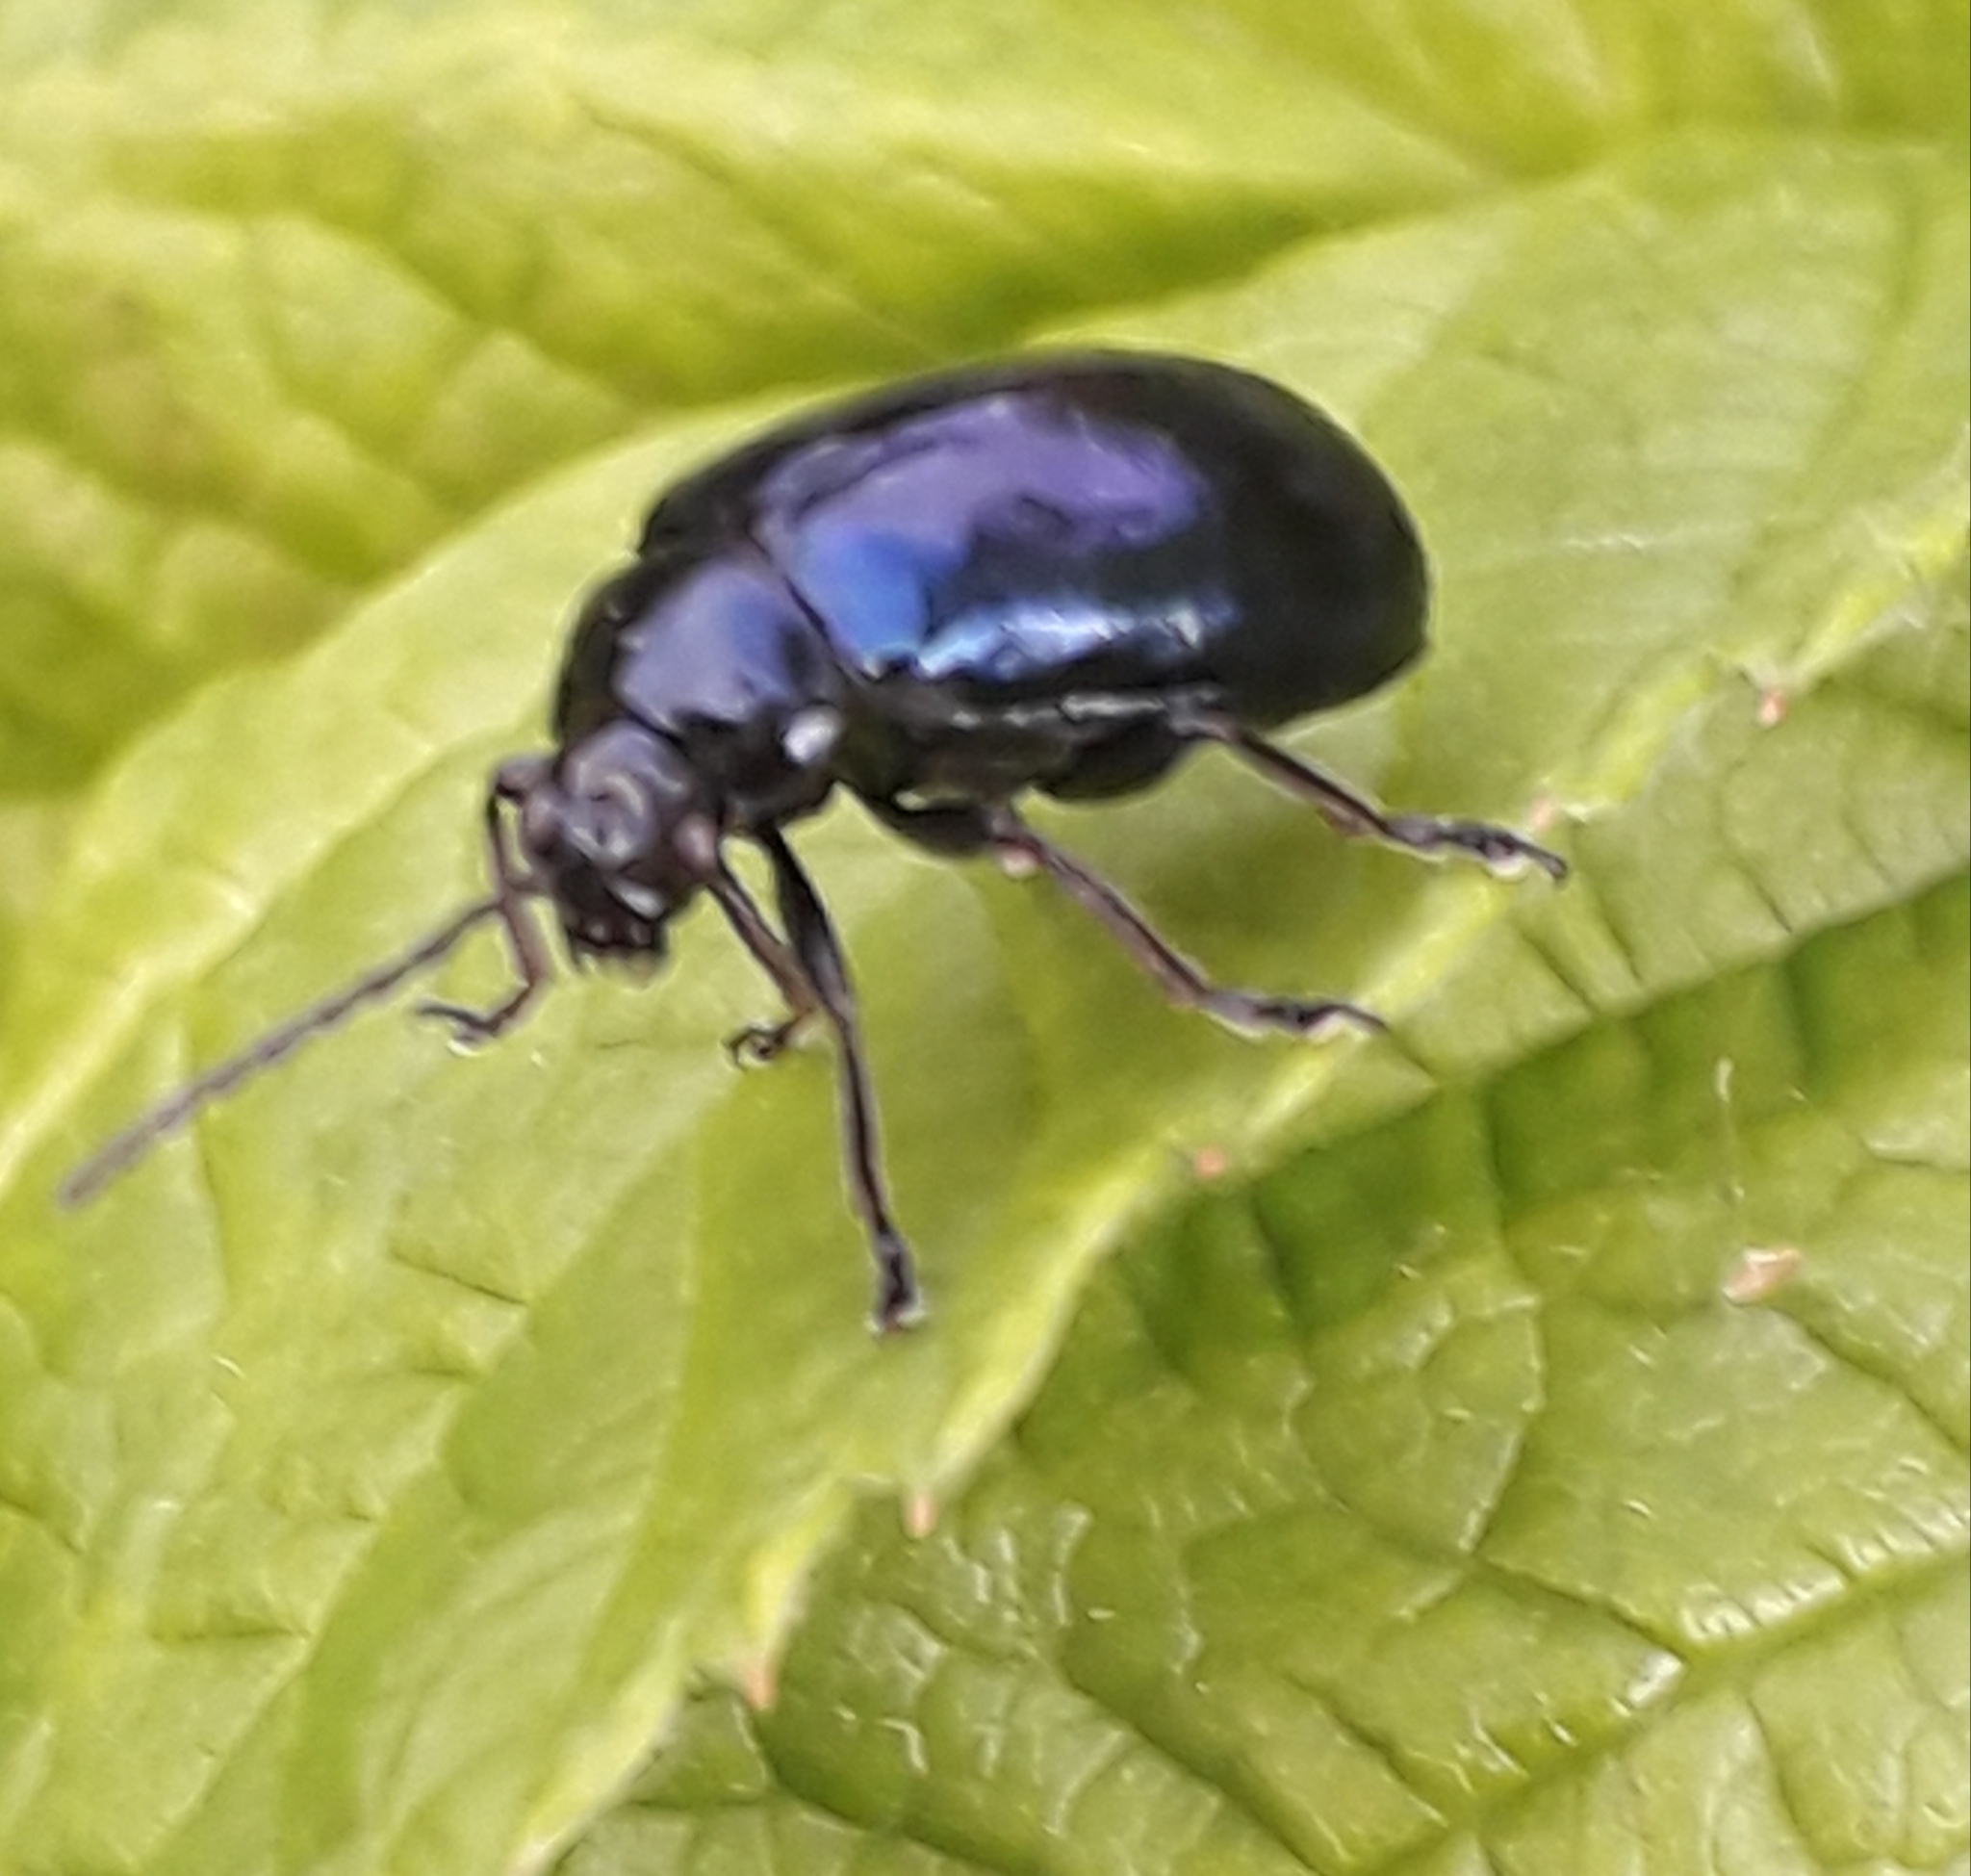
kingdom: Animalia
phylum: Arthropoda
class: Insecta
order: Coleoptera
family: Chrysomelidae
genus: Agelastica
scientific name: Agelastica alni
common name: Alder leaf beetle
